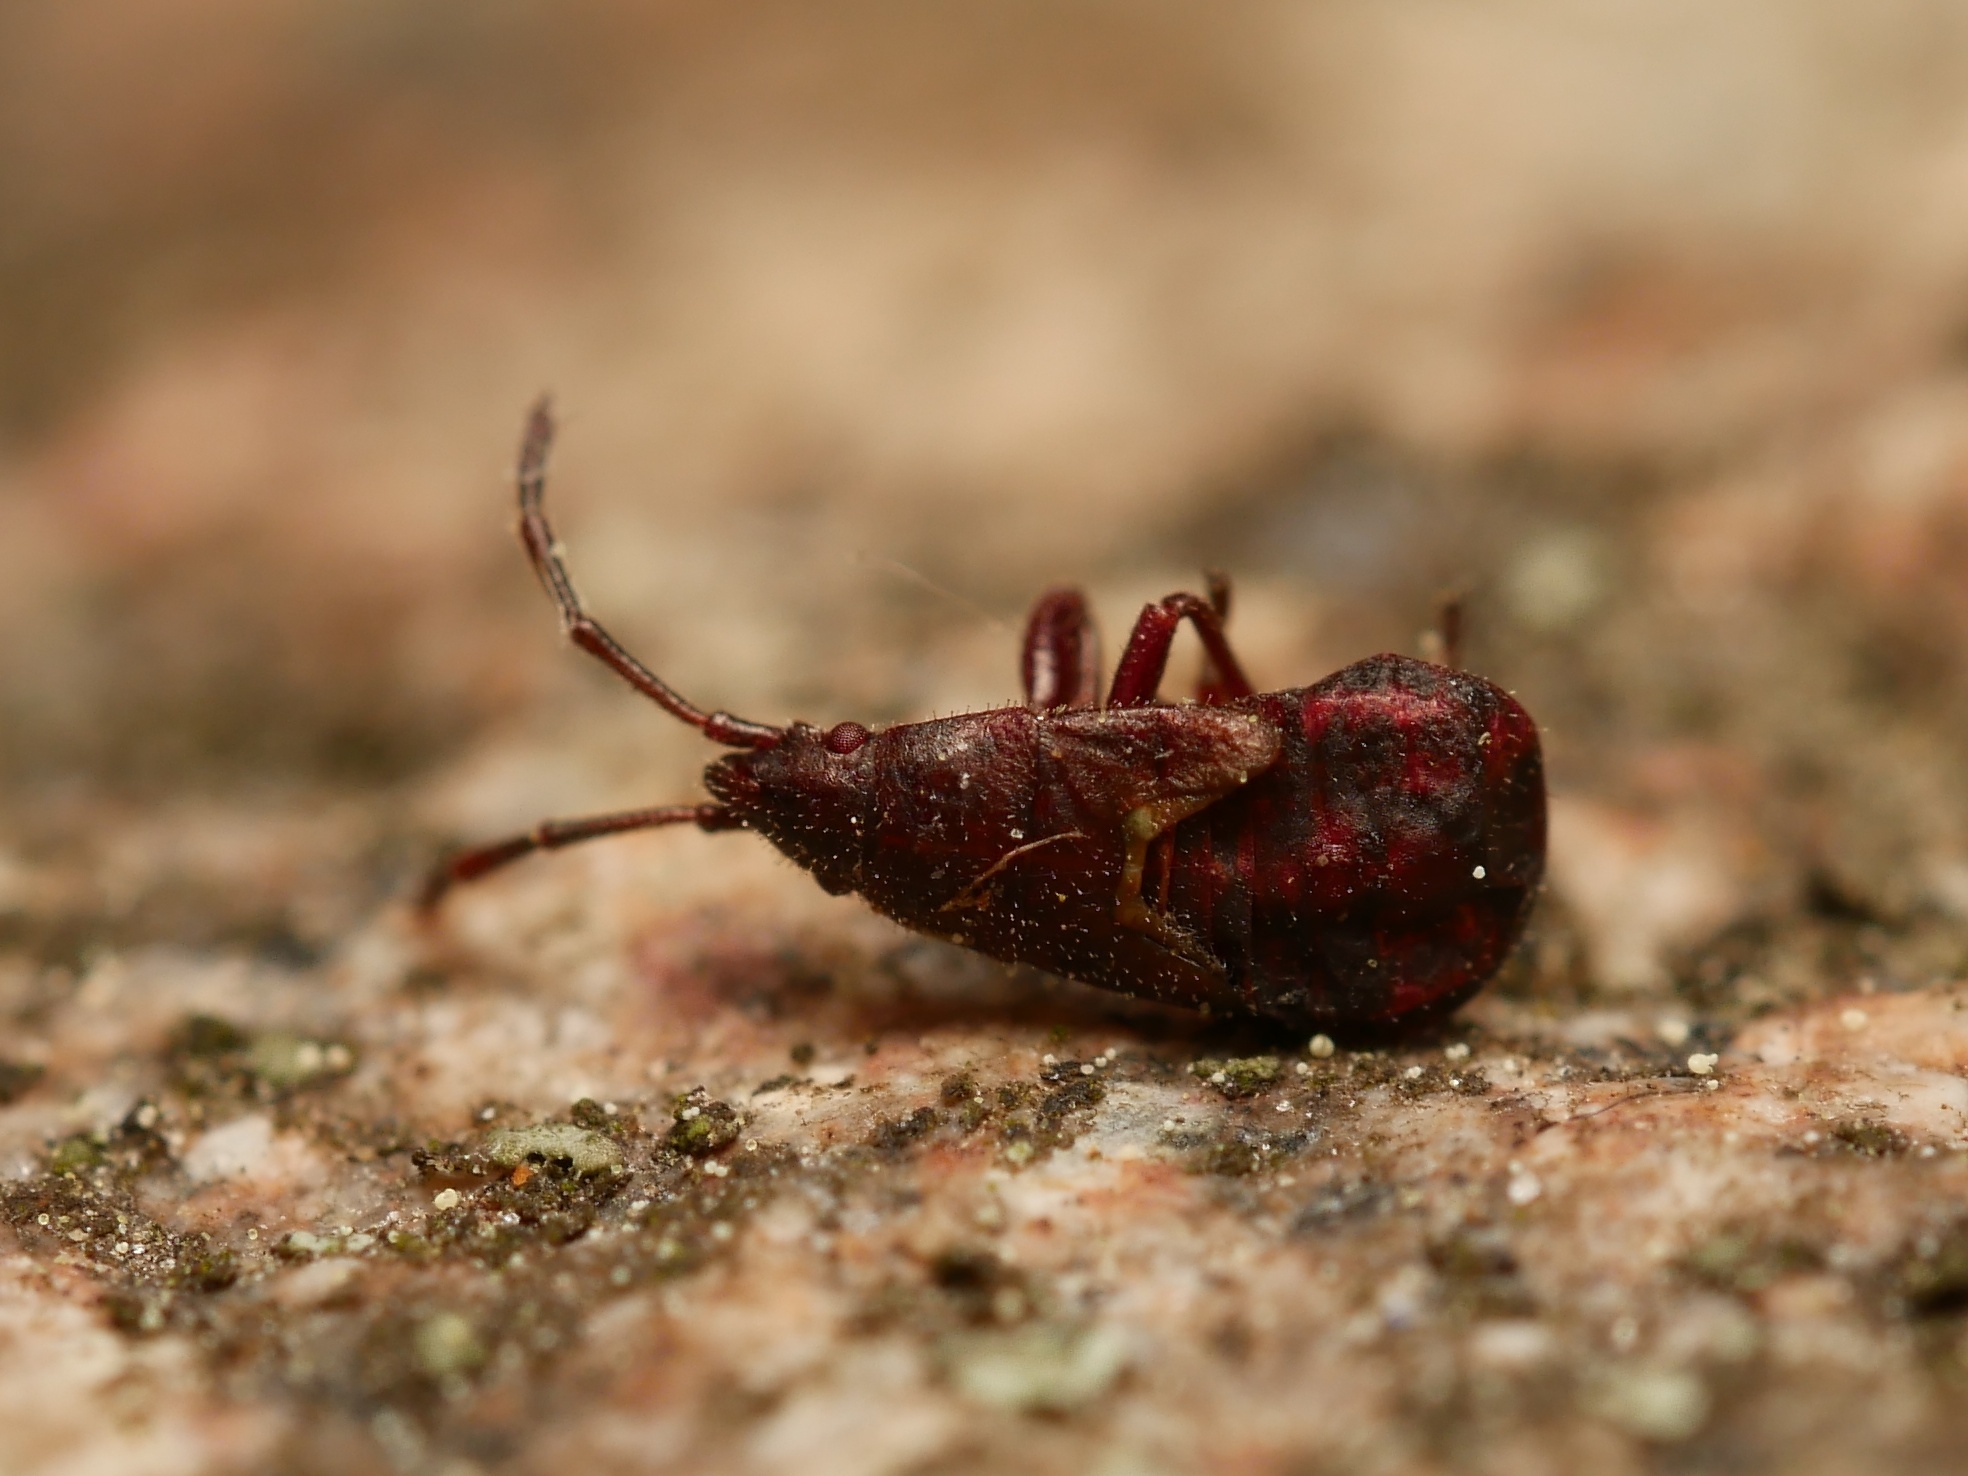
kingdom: Animalia
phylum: Arthropoda
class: Insecta
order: Hemiptera
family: Oxycarenidae
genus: Oxycarenus
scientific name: Oxycarenus lavaterae
